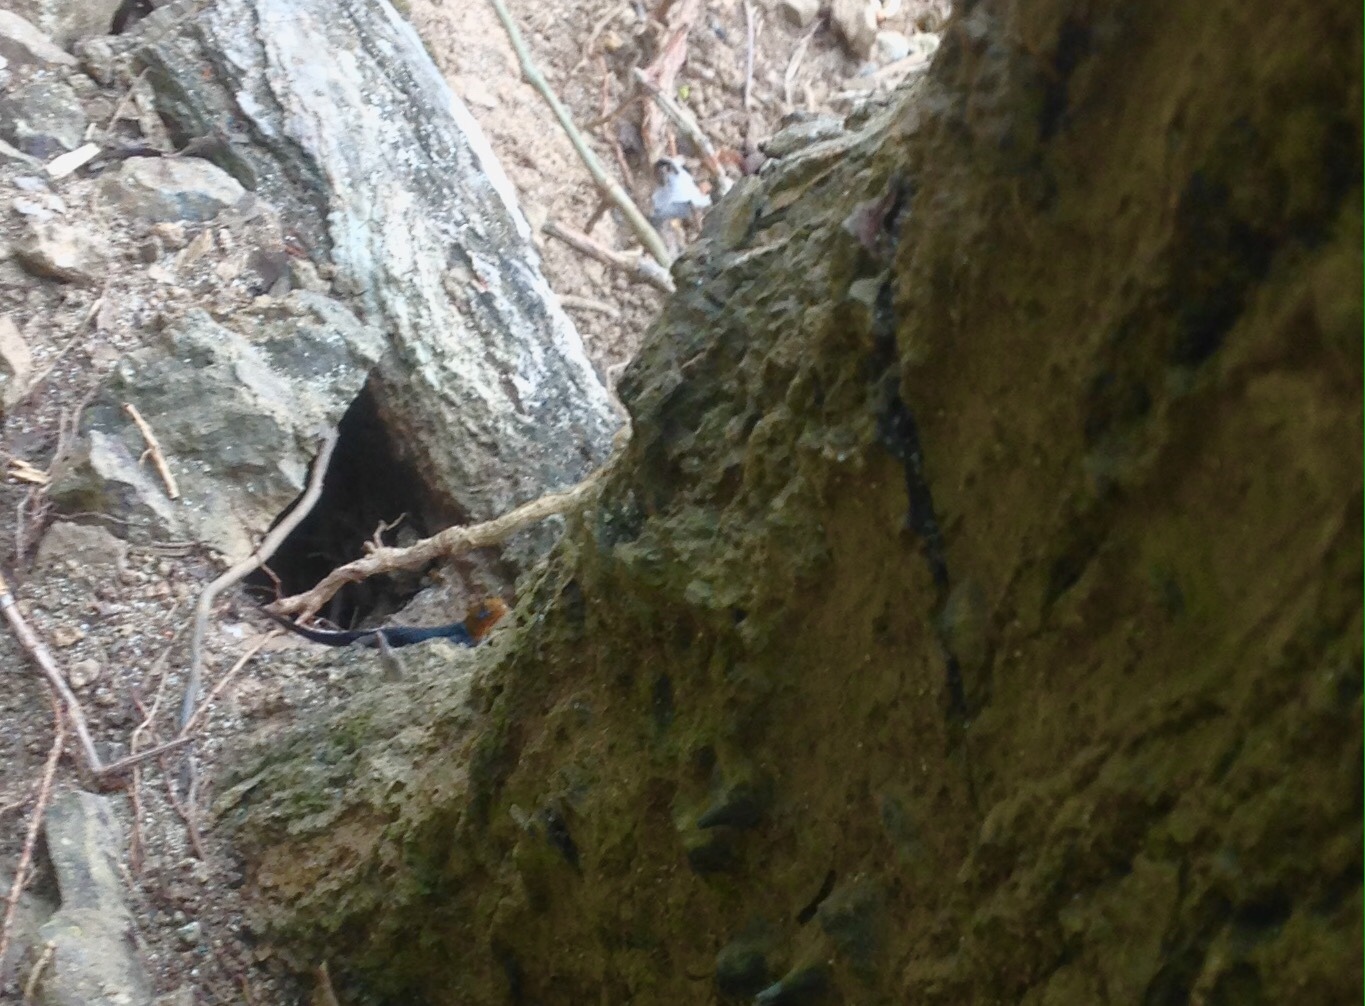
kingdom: Animalia
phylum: Chordata
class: Squamata
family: Sphaerodactylidae
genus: Gonatodes
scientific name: Gonatodes albogularis
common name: Yellow-headed gecko
